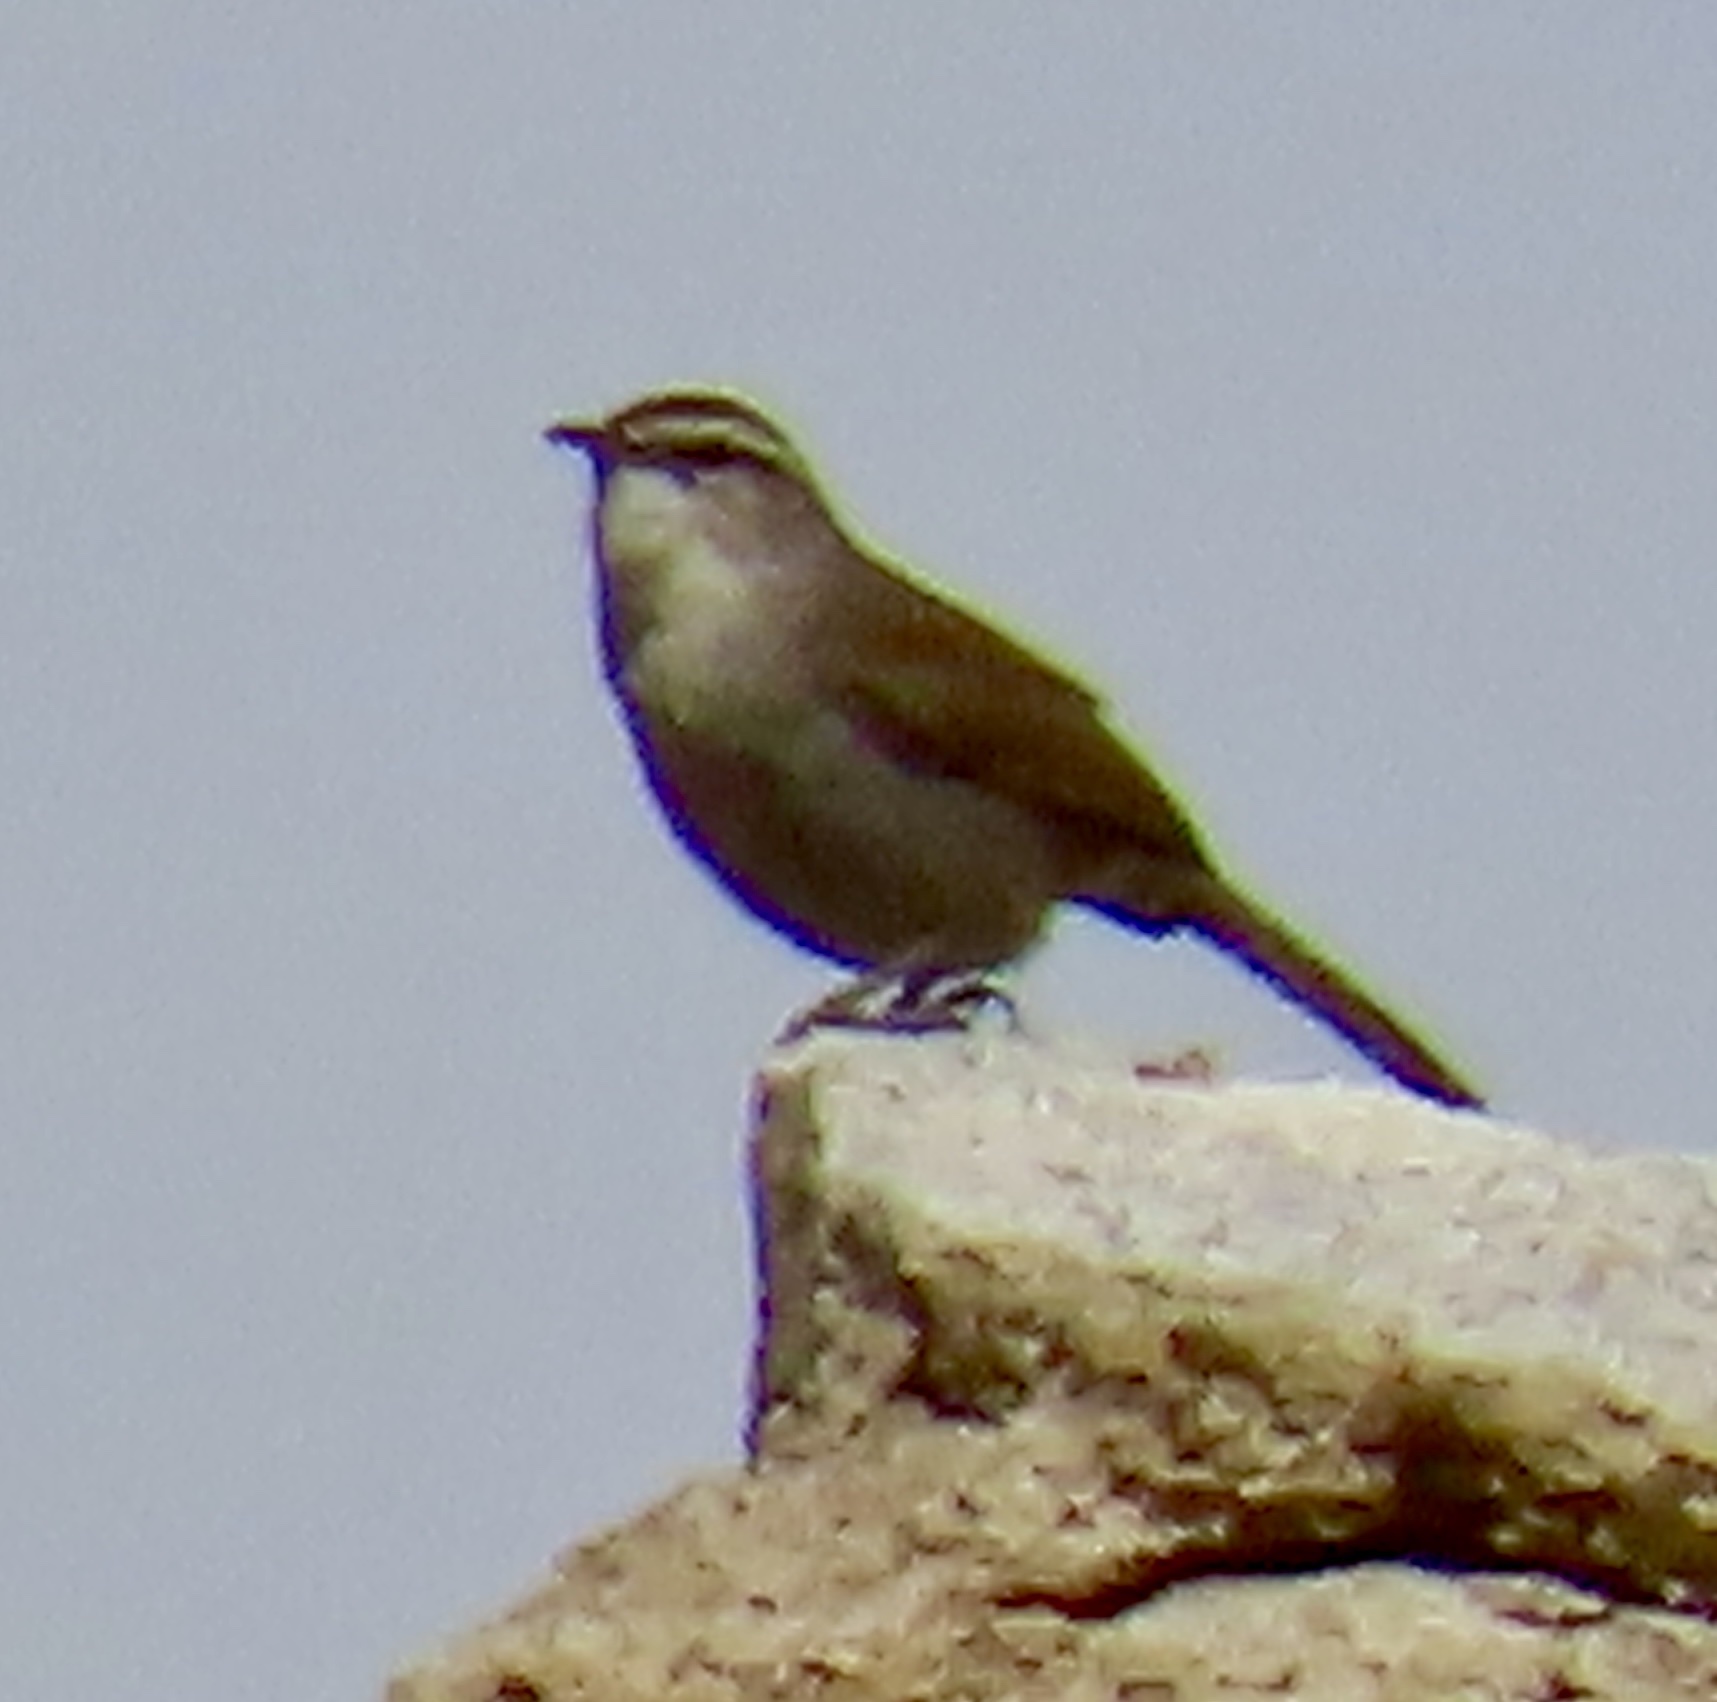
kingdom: Animalia
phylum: Chordata
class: Aves
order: Passeriformes
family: Troglodytidae
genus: Thryomanes
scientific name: Thryomanes bewickii
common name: Bewick's wren
